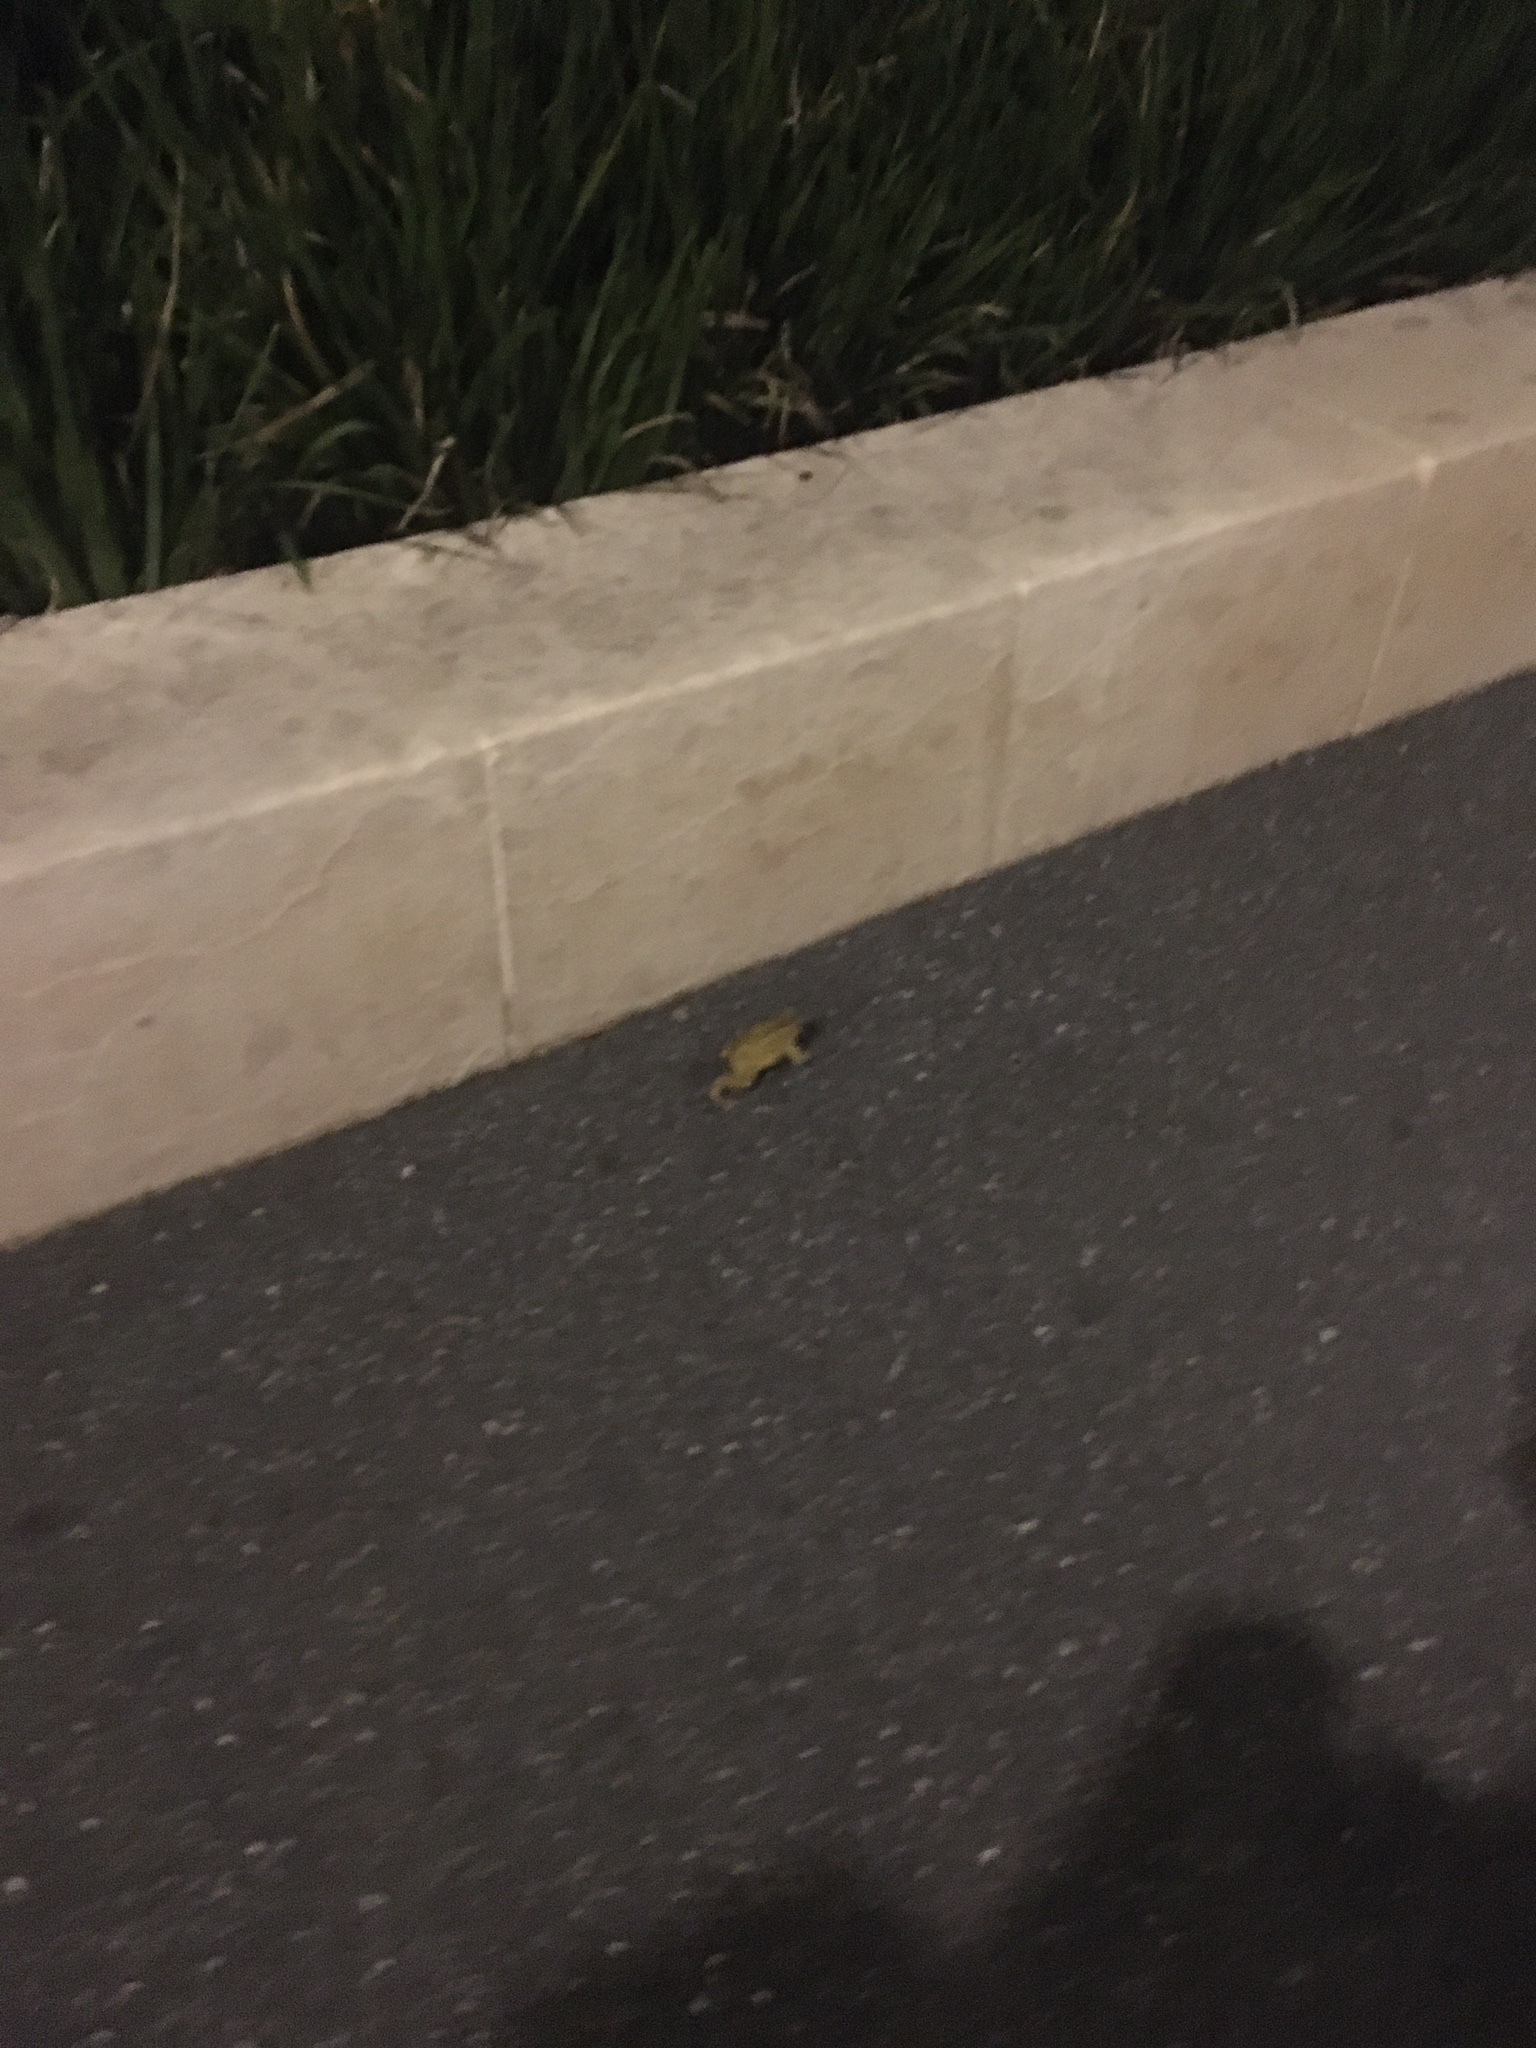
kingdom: Animalia
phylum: Chordata
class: Amphibia
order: Anura
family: Bufonidae
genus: Bufo
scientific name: Bufo spinosus
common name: Western common toad
